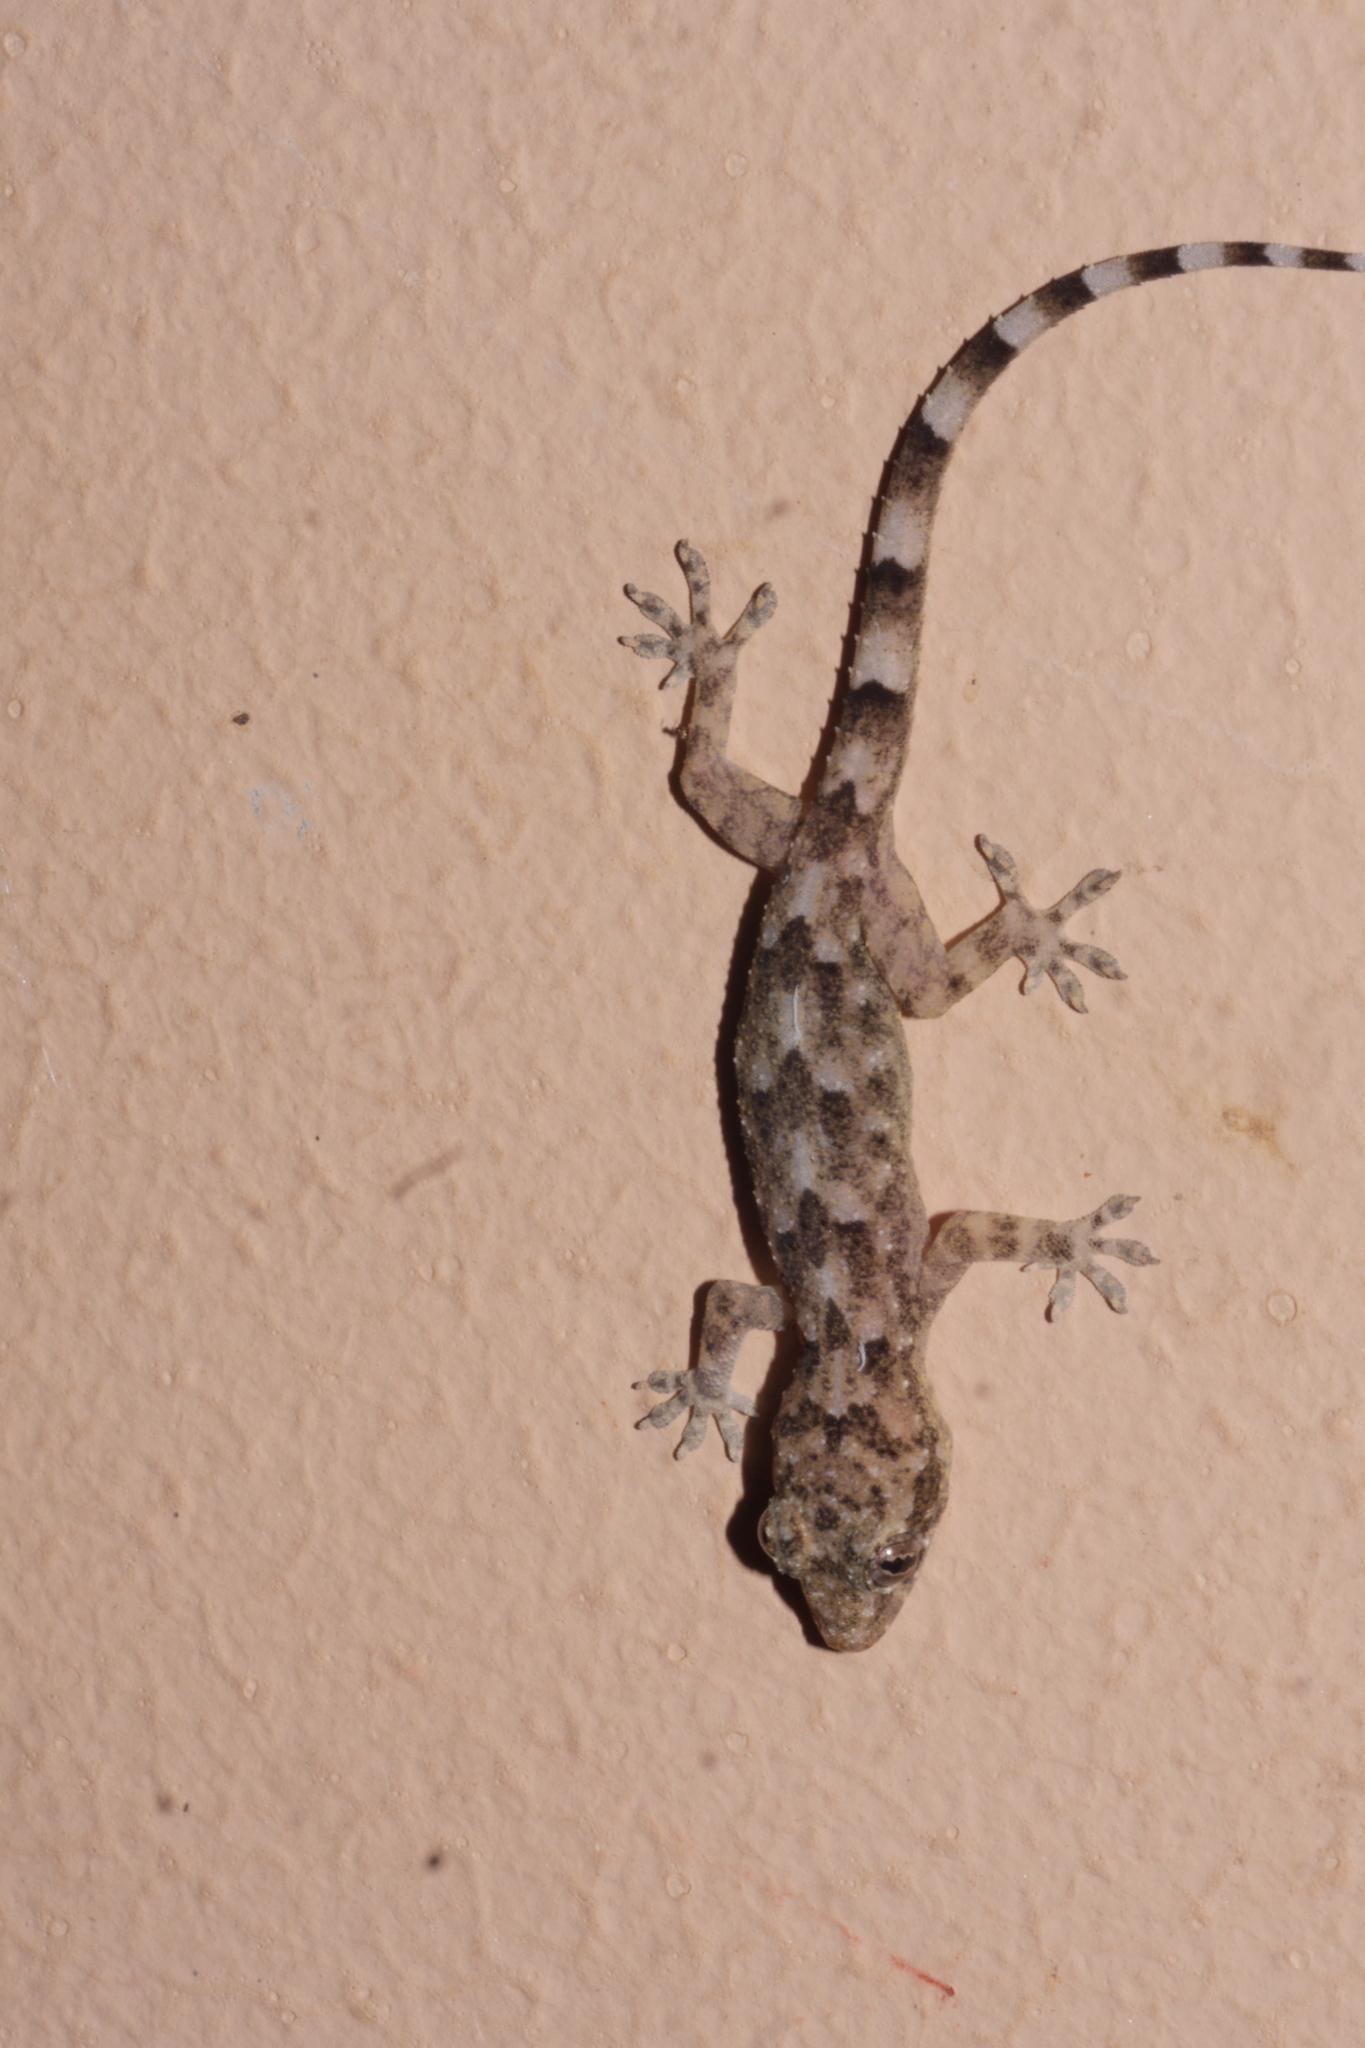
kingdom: Animalia
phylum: Chordata
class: Squamata
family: Gekkonidae
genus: Hemidactylus
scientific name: Hemidactylus mabouia
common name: House gecko
